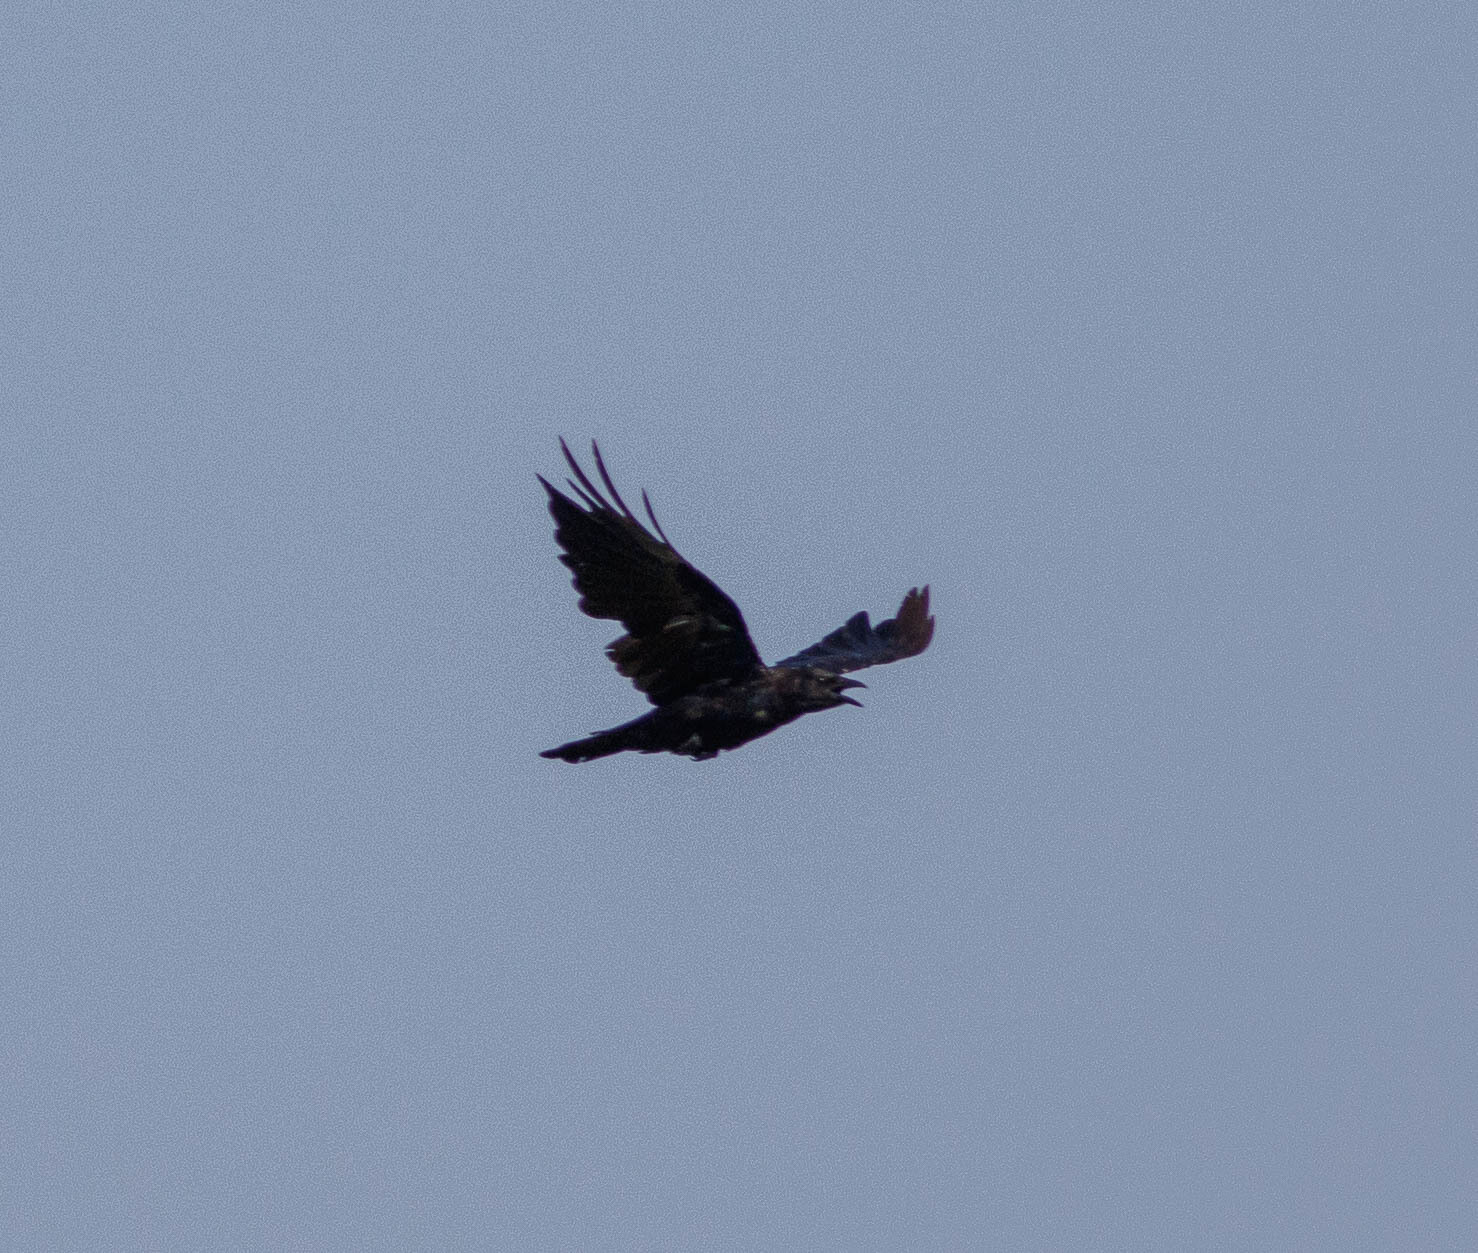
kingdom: Animalia
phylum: Chordata
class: Aves
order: Passeriformes
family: Corvidae
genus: Corvus
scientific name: Corvus ossifragus
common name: Fish crow
